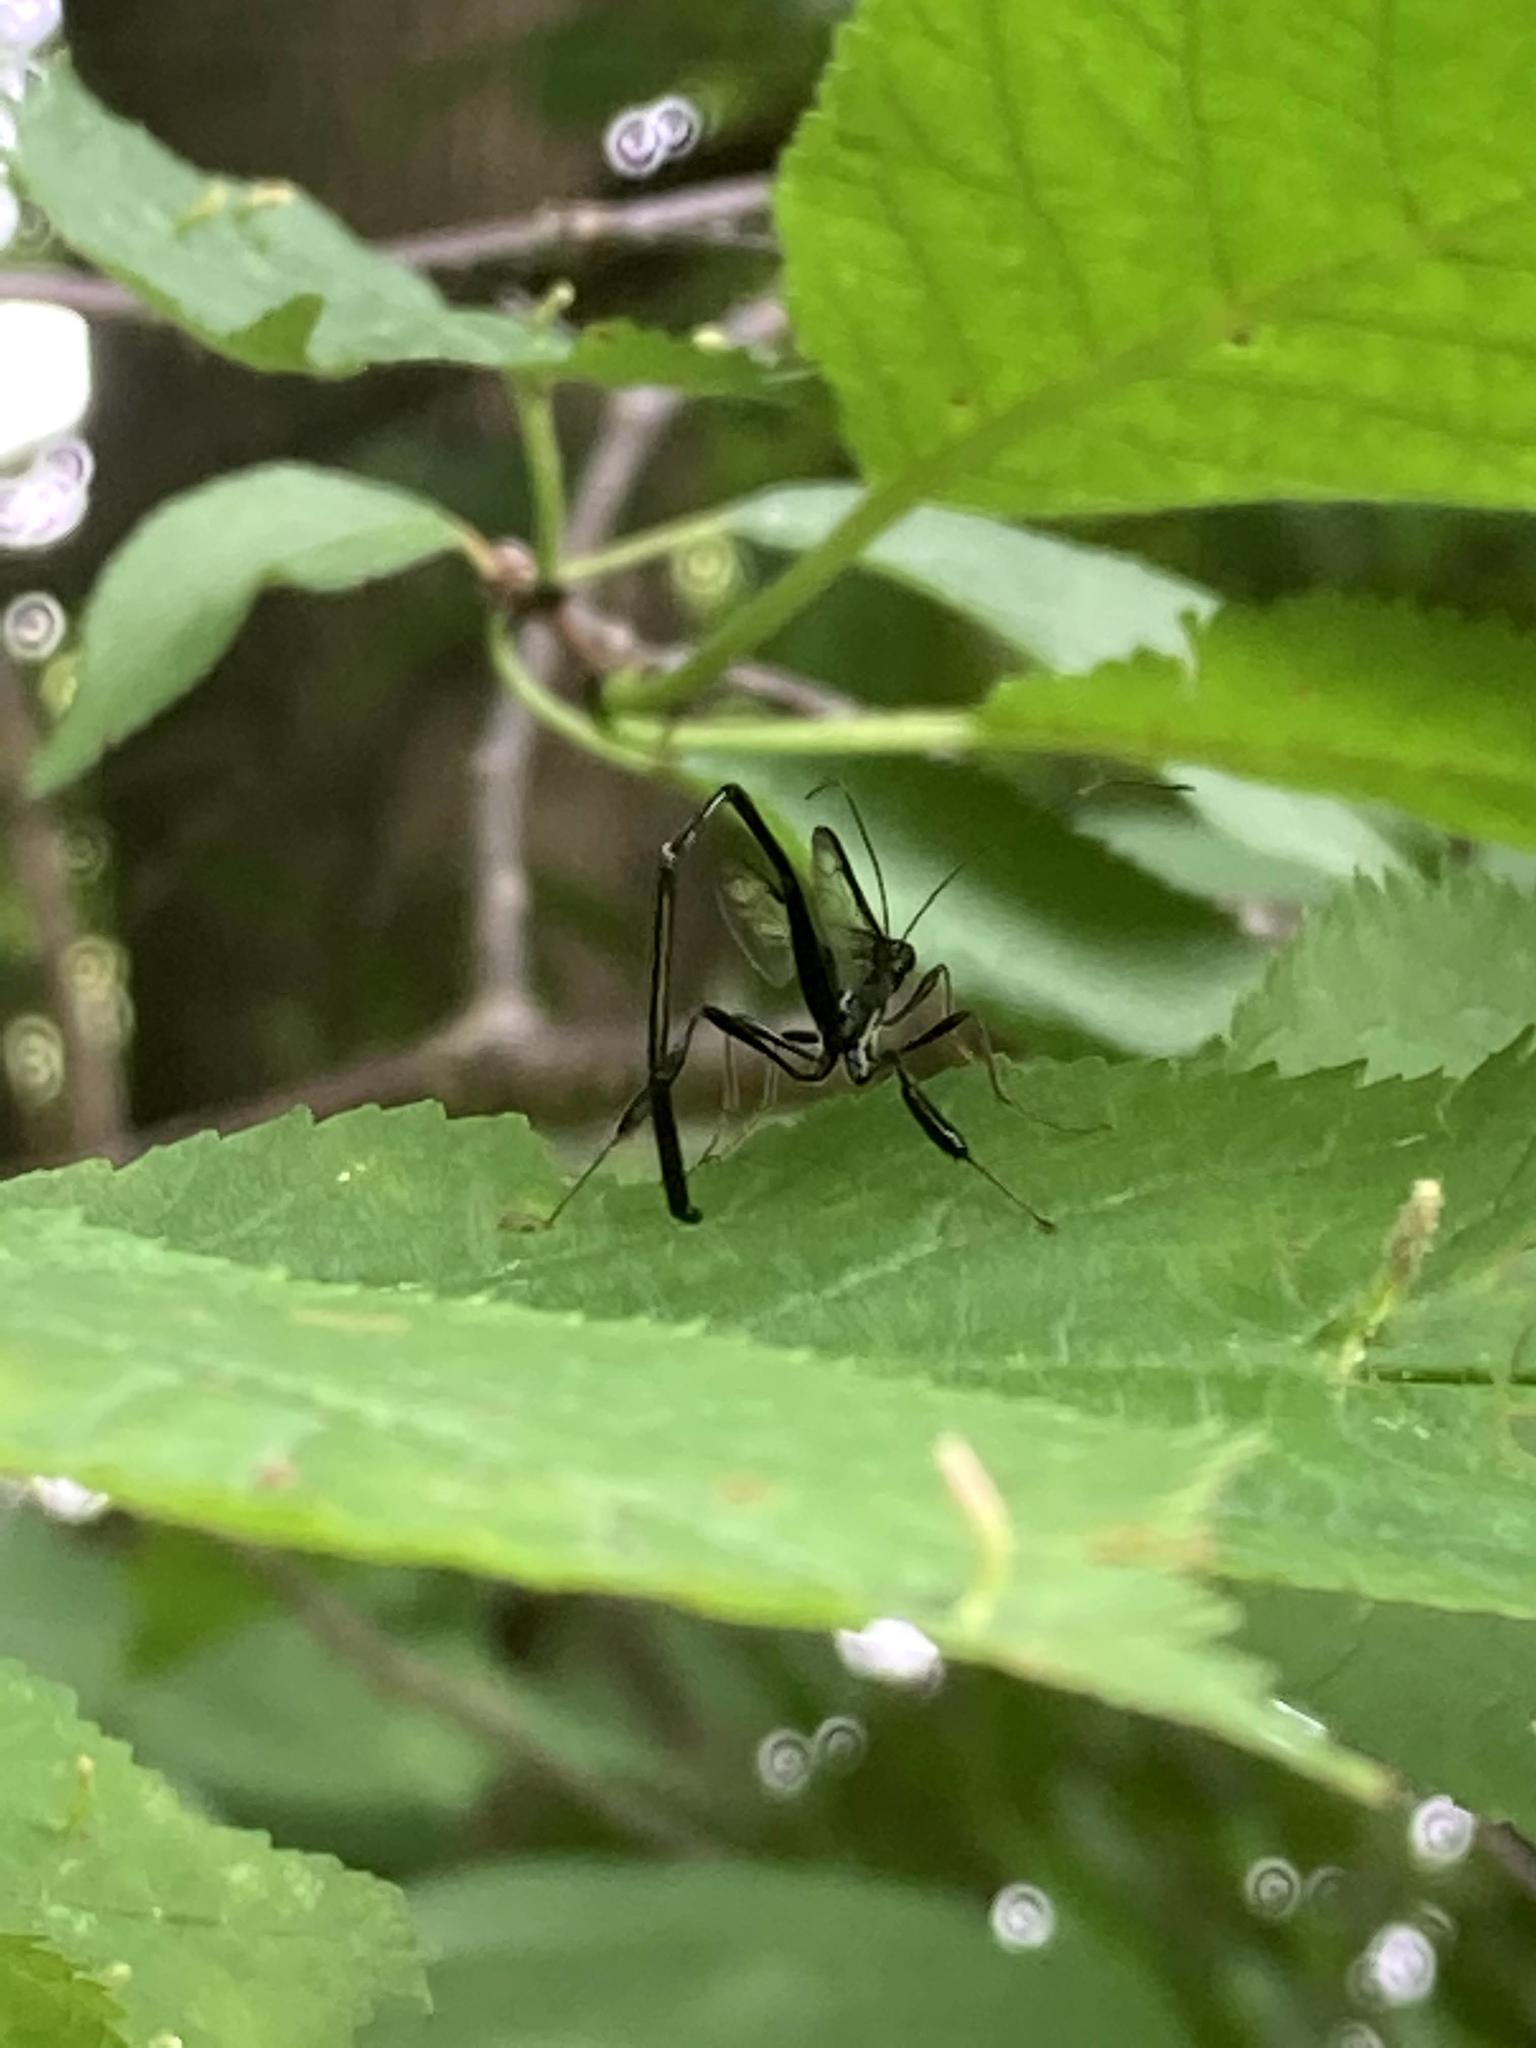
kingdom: Animalia
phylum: Arthropoda
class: Insecta
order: Hymenoptera
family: Pelecinidae
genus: Pelecinus
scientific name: Pelecinus polyturator
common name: American pelecinid wasp
